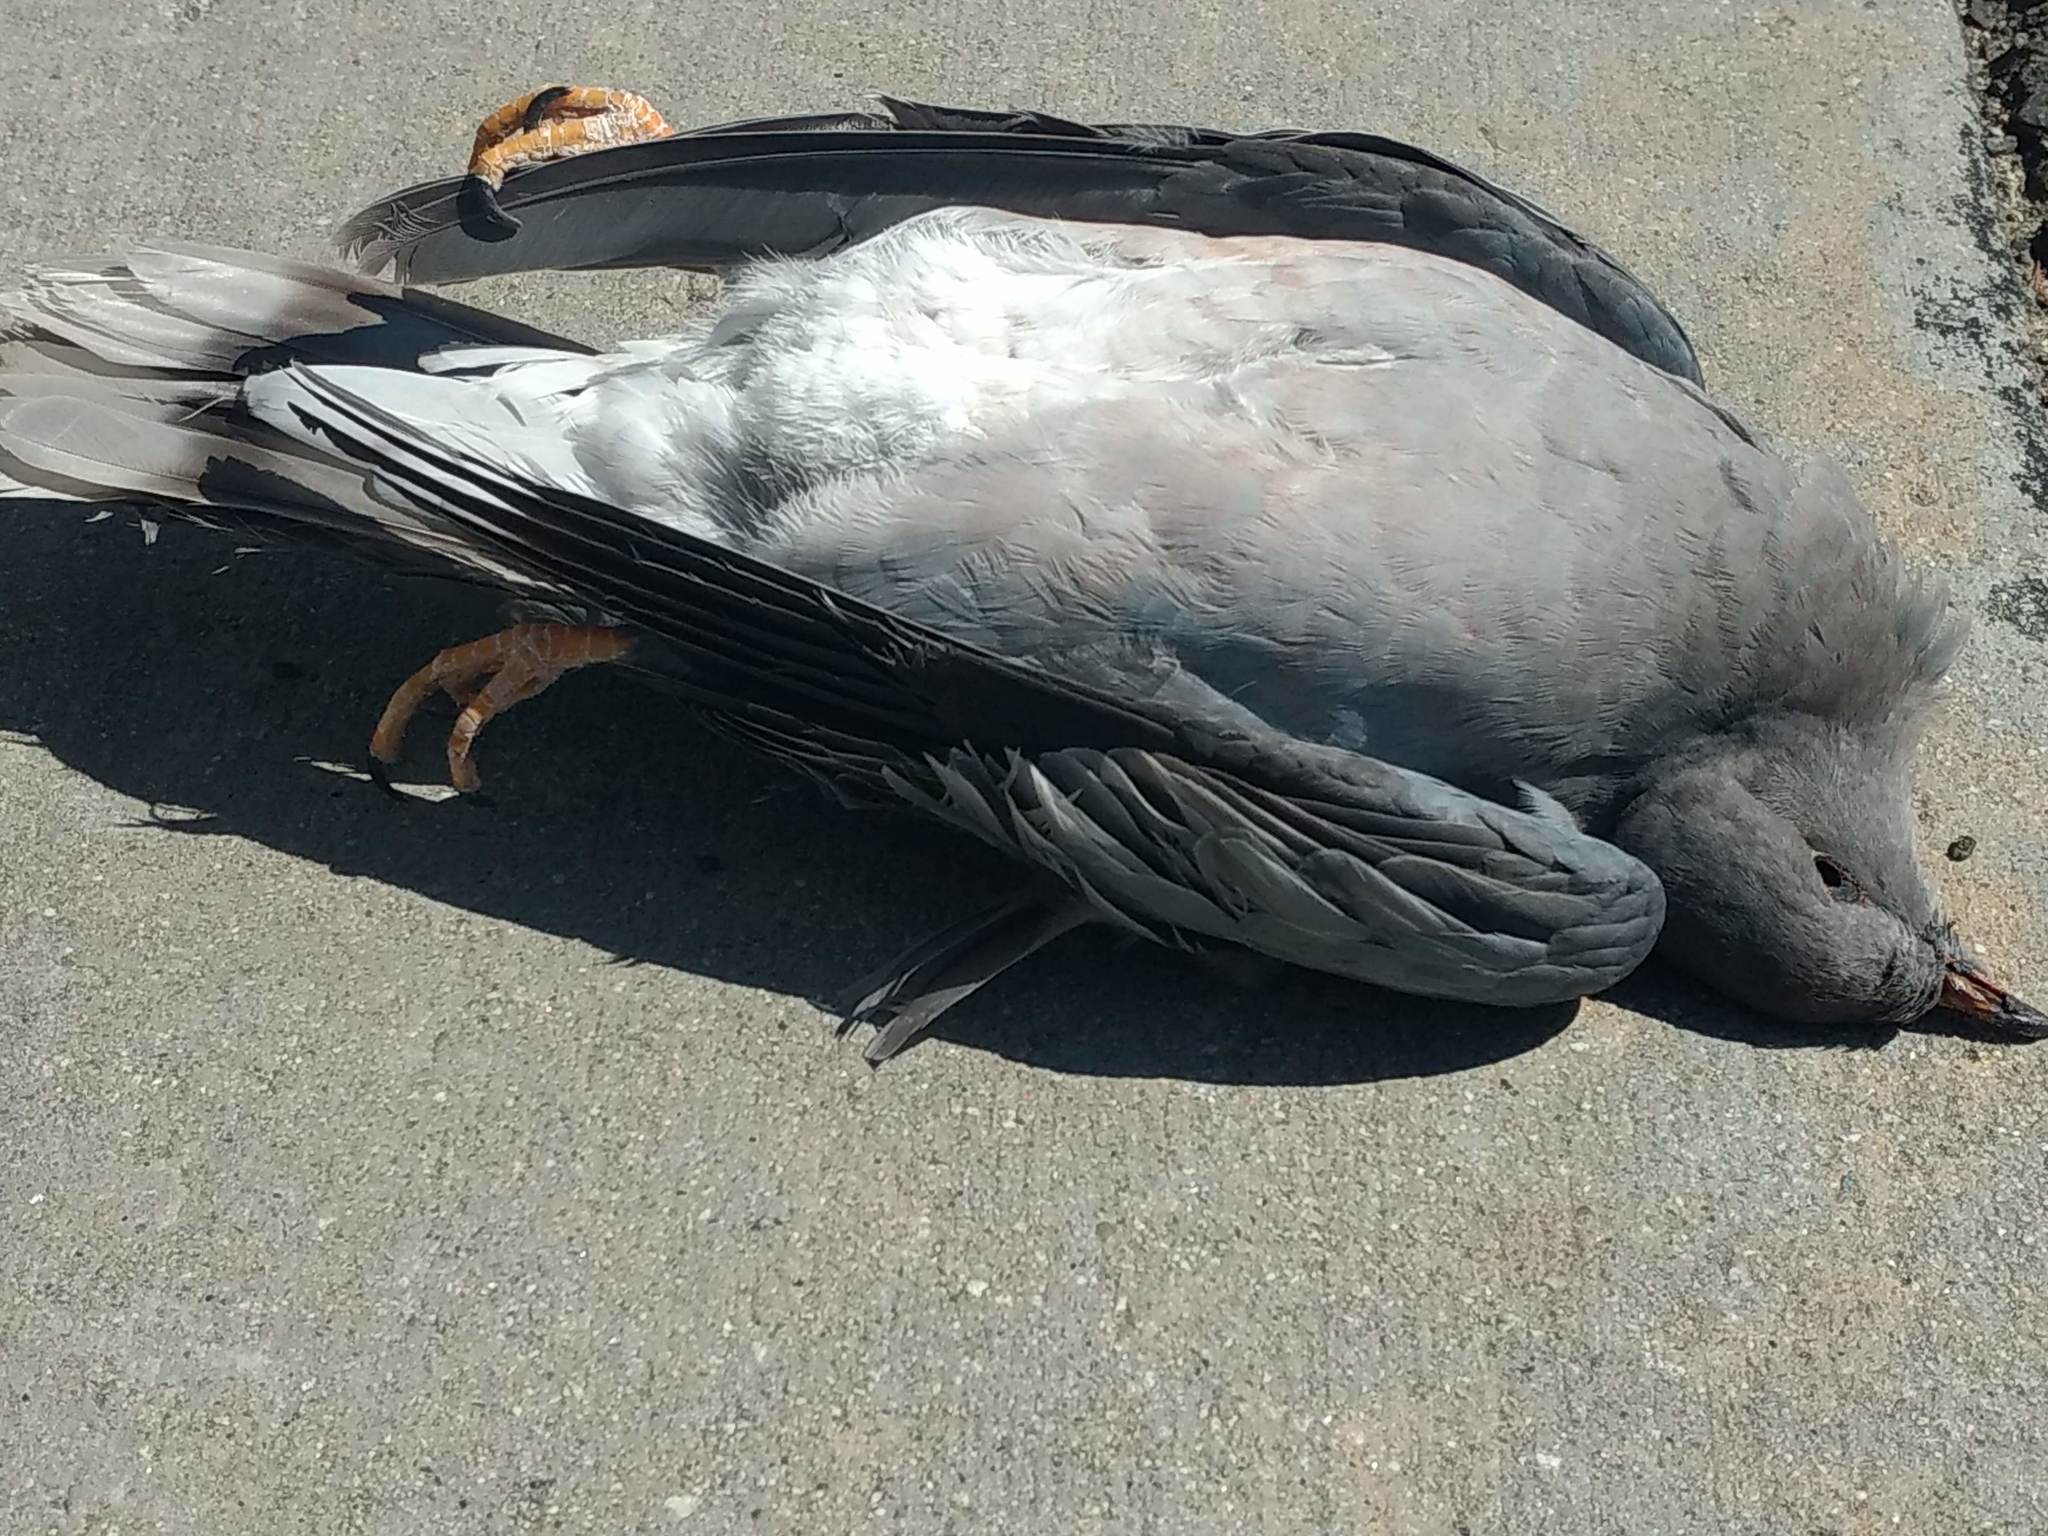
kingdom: Animalia
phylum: Chordata
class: Aves
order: Columbiformes
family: Columbidae
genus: Patagioenas
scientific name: Patagioenas fasciata
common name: Band-tailed pigeon
